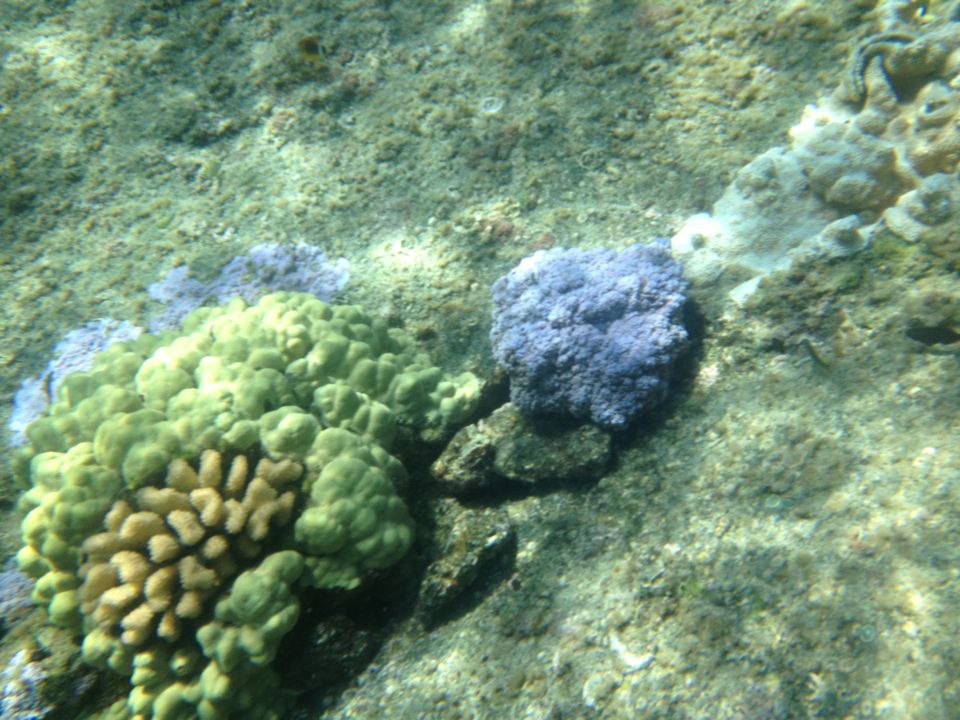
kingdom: Animalia
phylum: Cnidaria
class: Anthozoa
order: Scleractinia
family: Pocilloporidae
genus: Pocillopora
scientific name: Pocillopora meandrina
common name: Cauliflower coral
